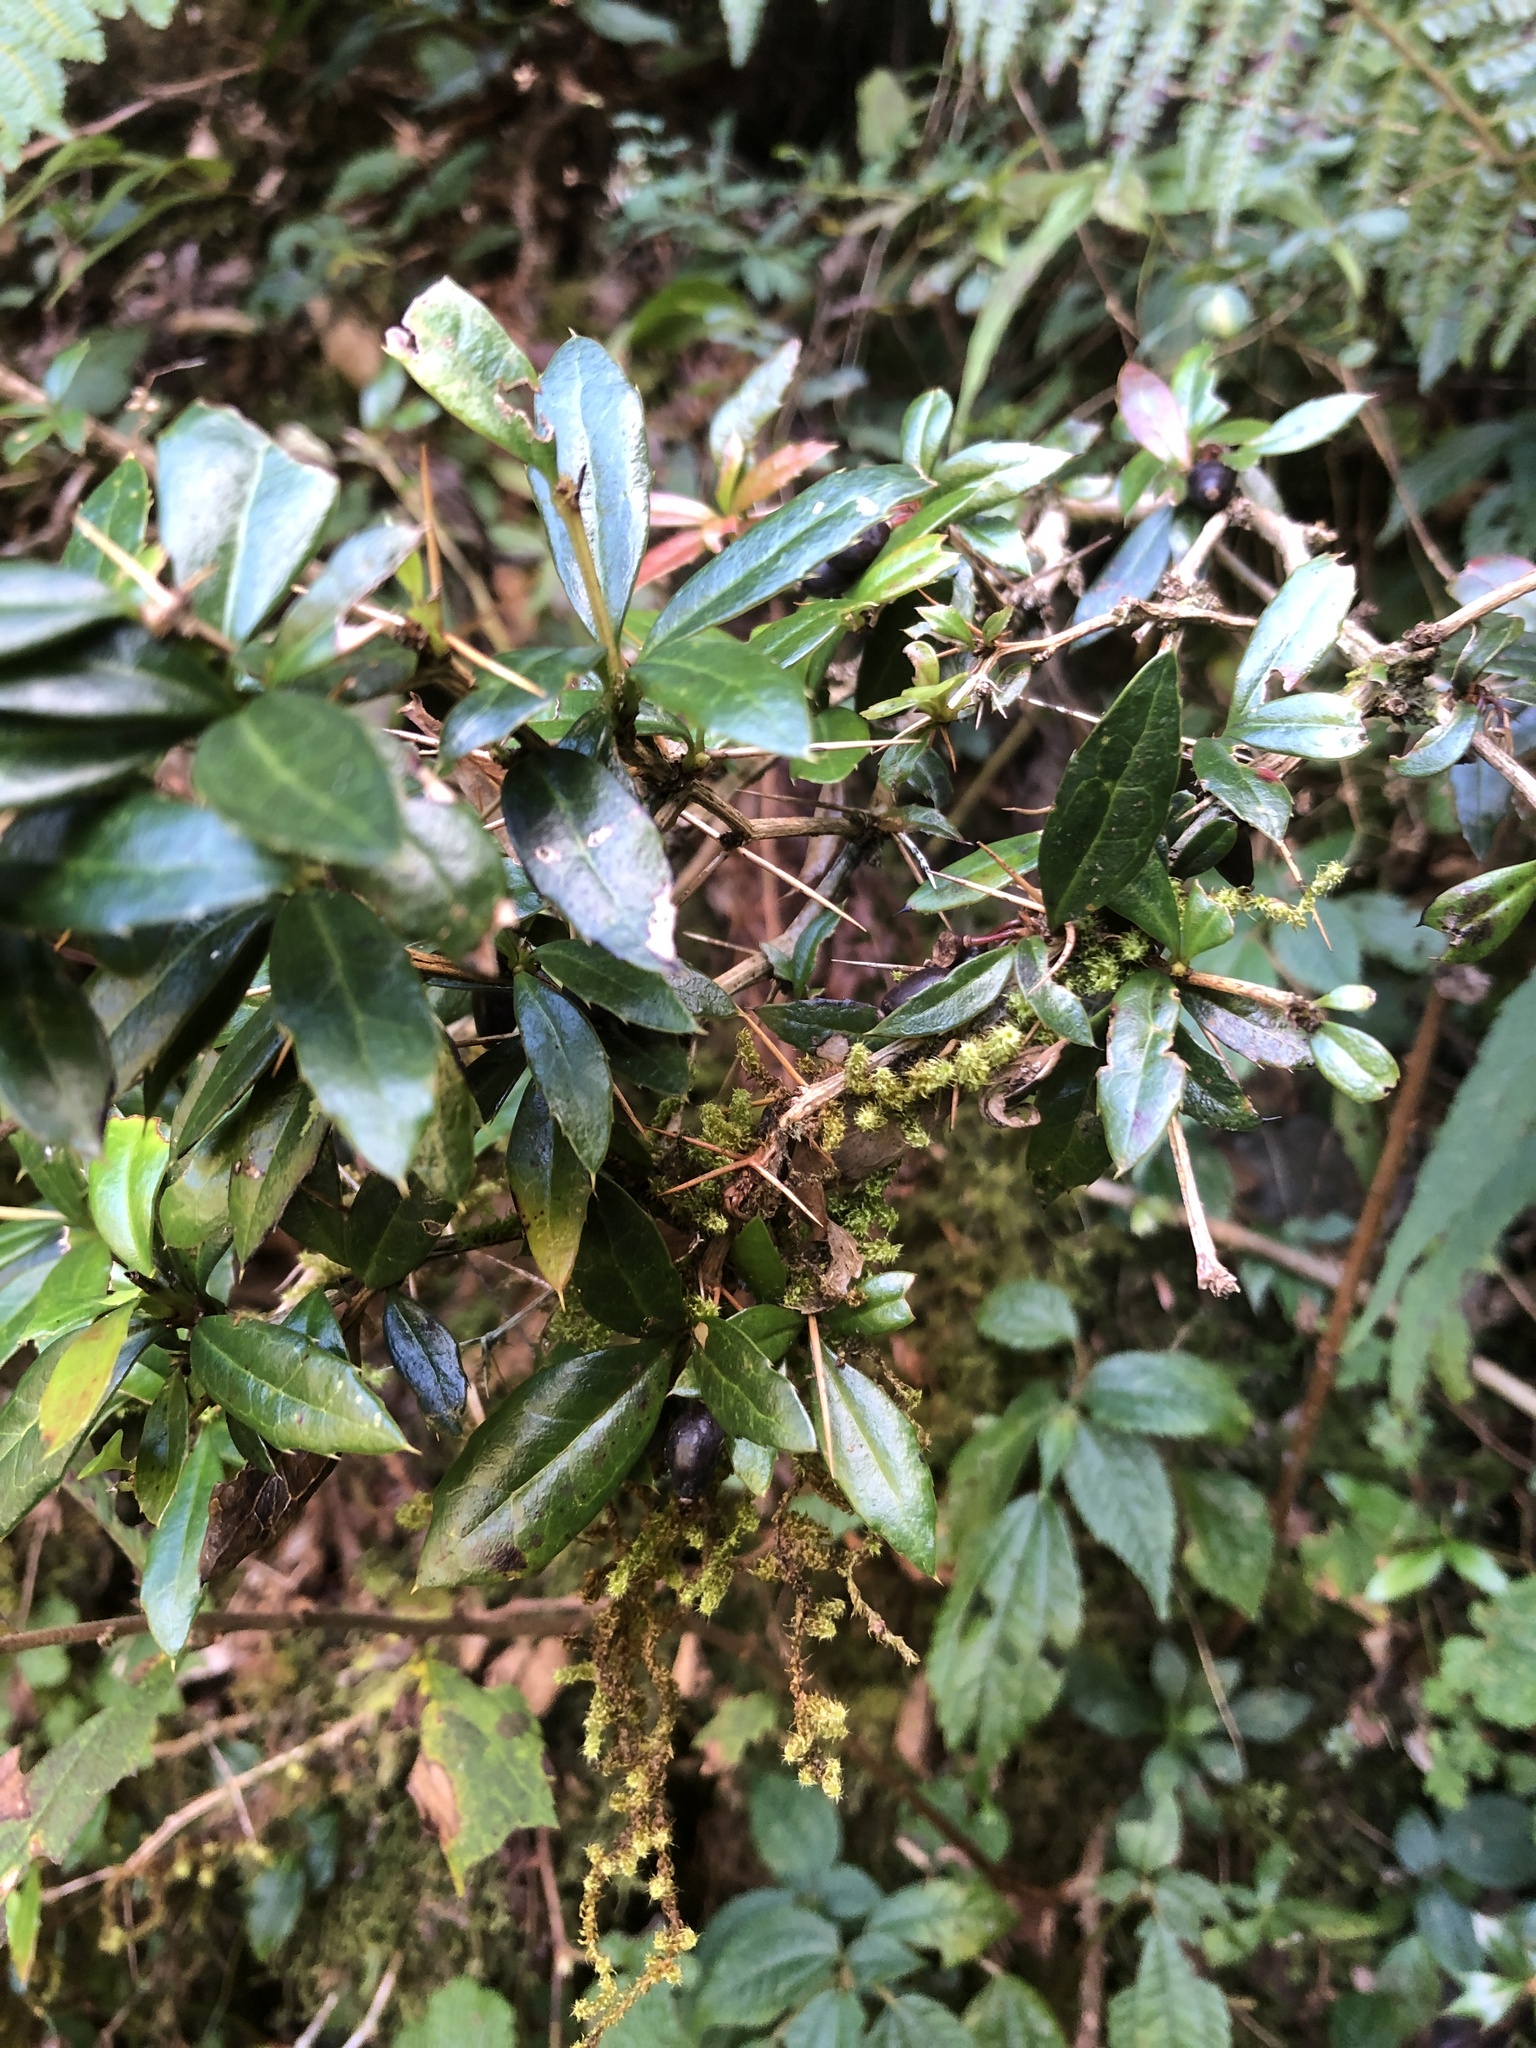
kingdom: Plantae
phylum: Tracheophyta
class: Magnoliopsida
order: Ranunculales
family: Berberidaceae
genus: Berberis
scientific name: Berberis kawakamii
